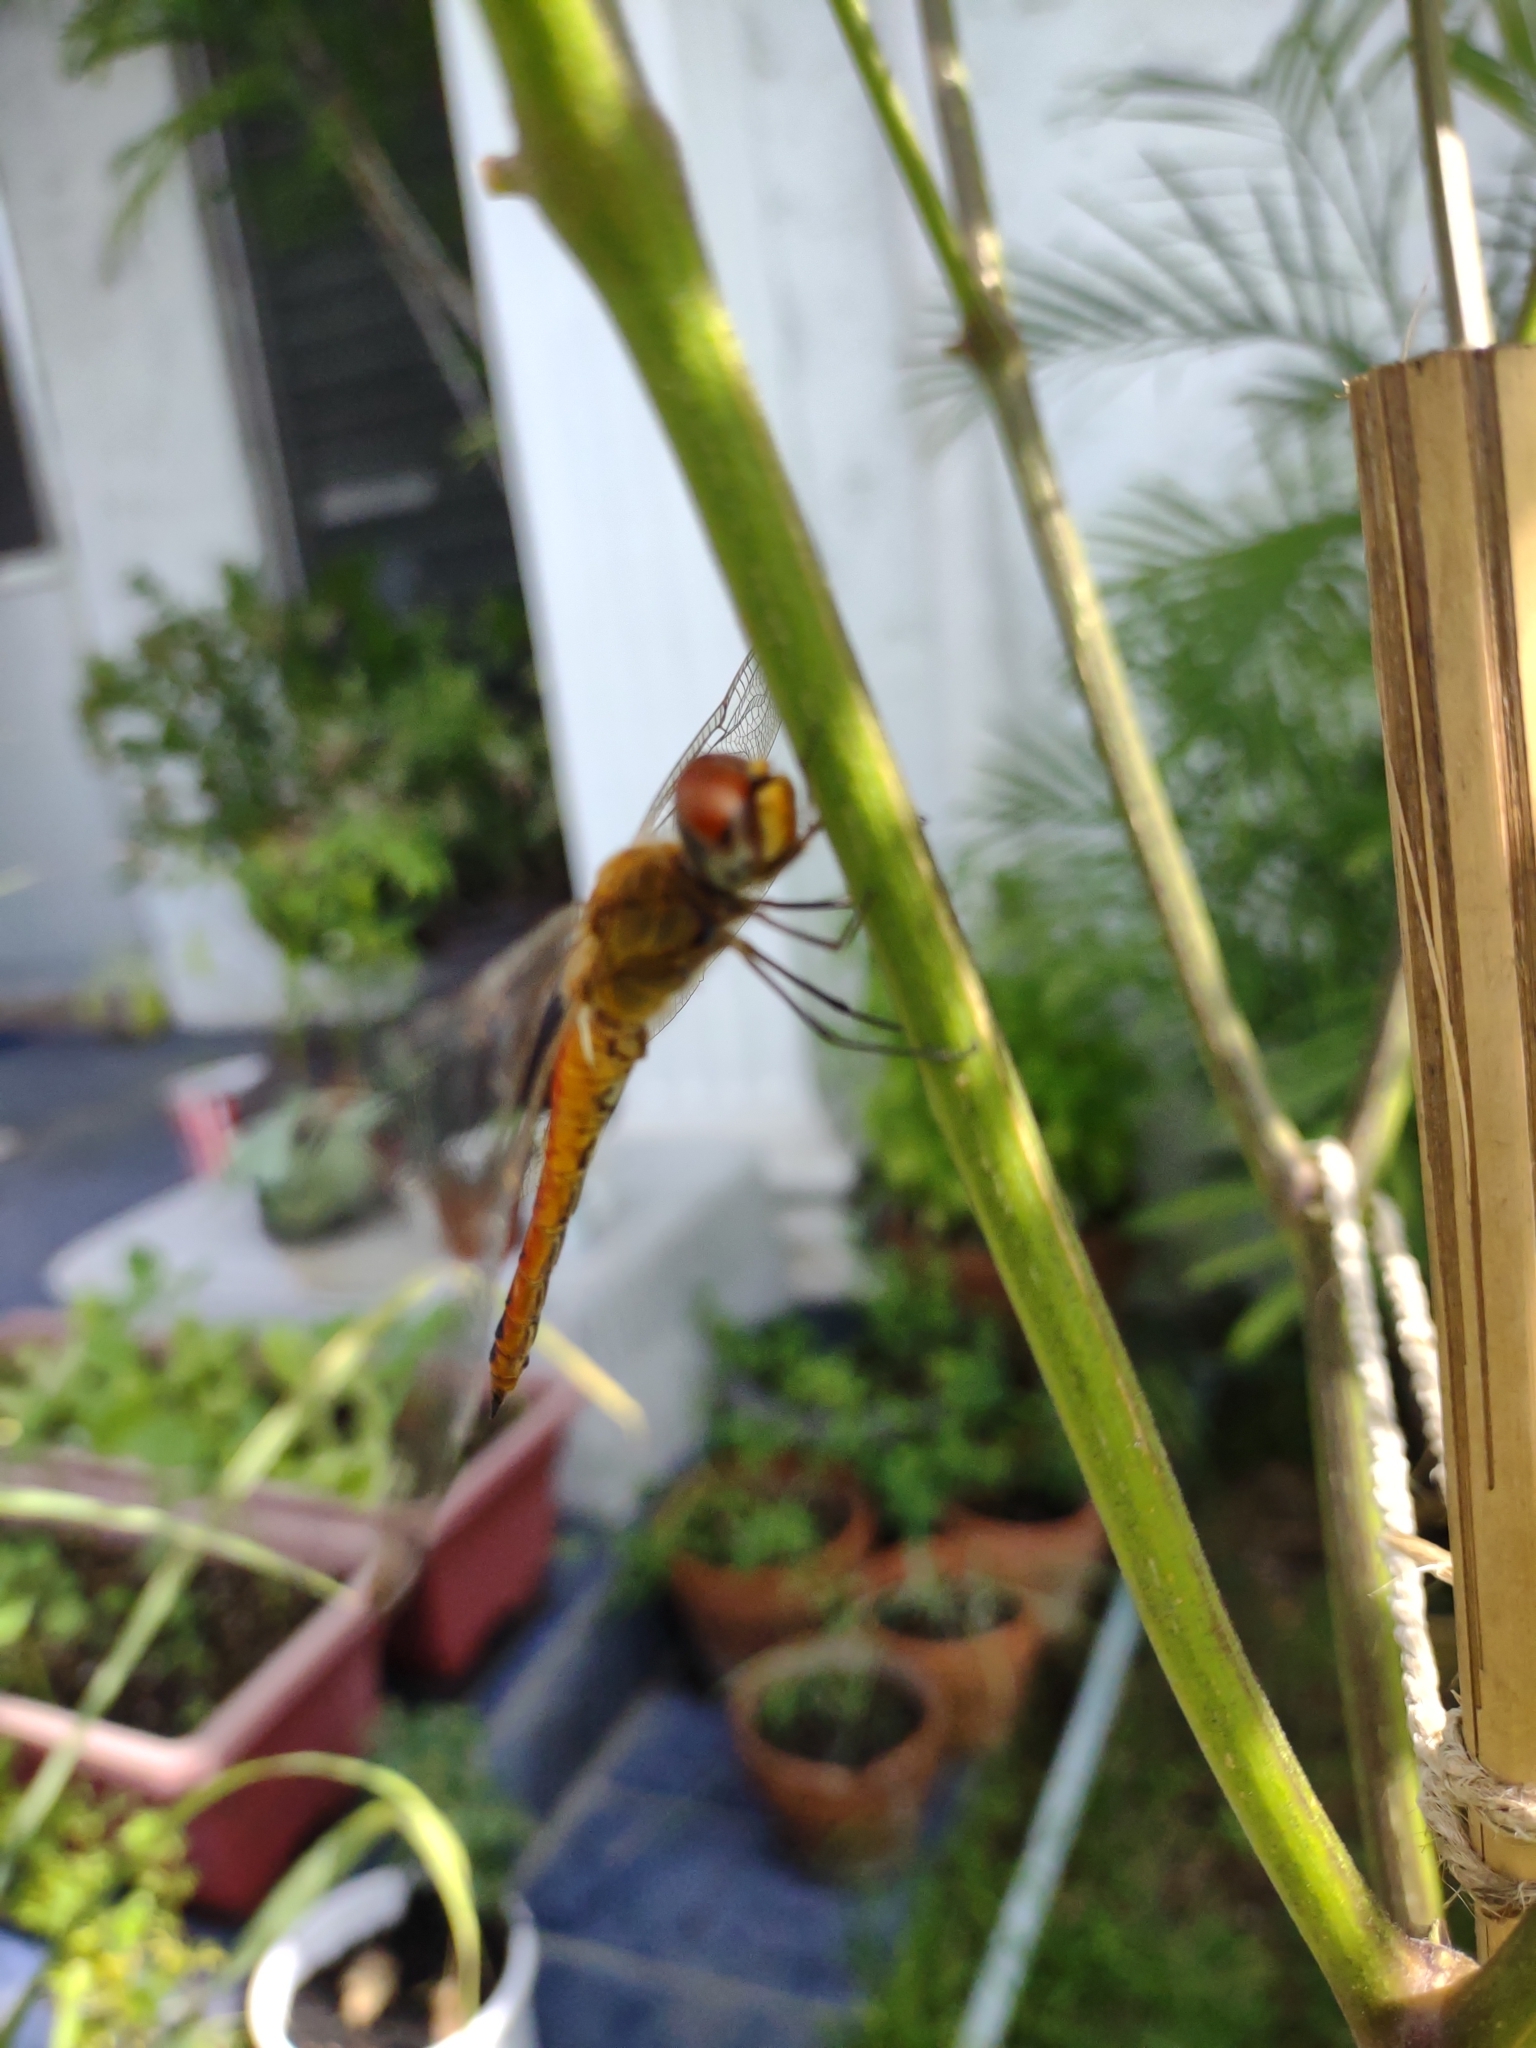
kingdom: Animalia
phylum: Arthropoda
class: Insecta
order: Odonata
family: Libellulidae
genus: Pantala
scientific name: Pantala flavescens
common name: Wandering glider
